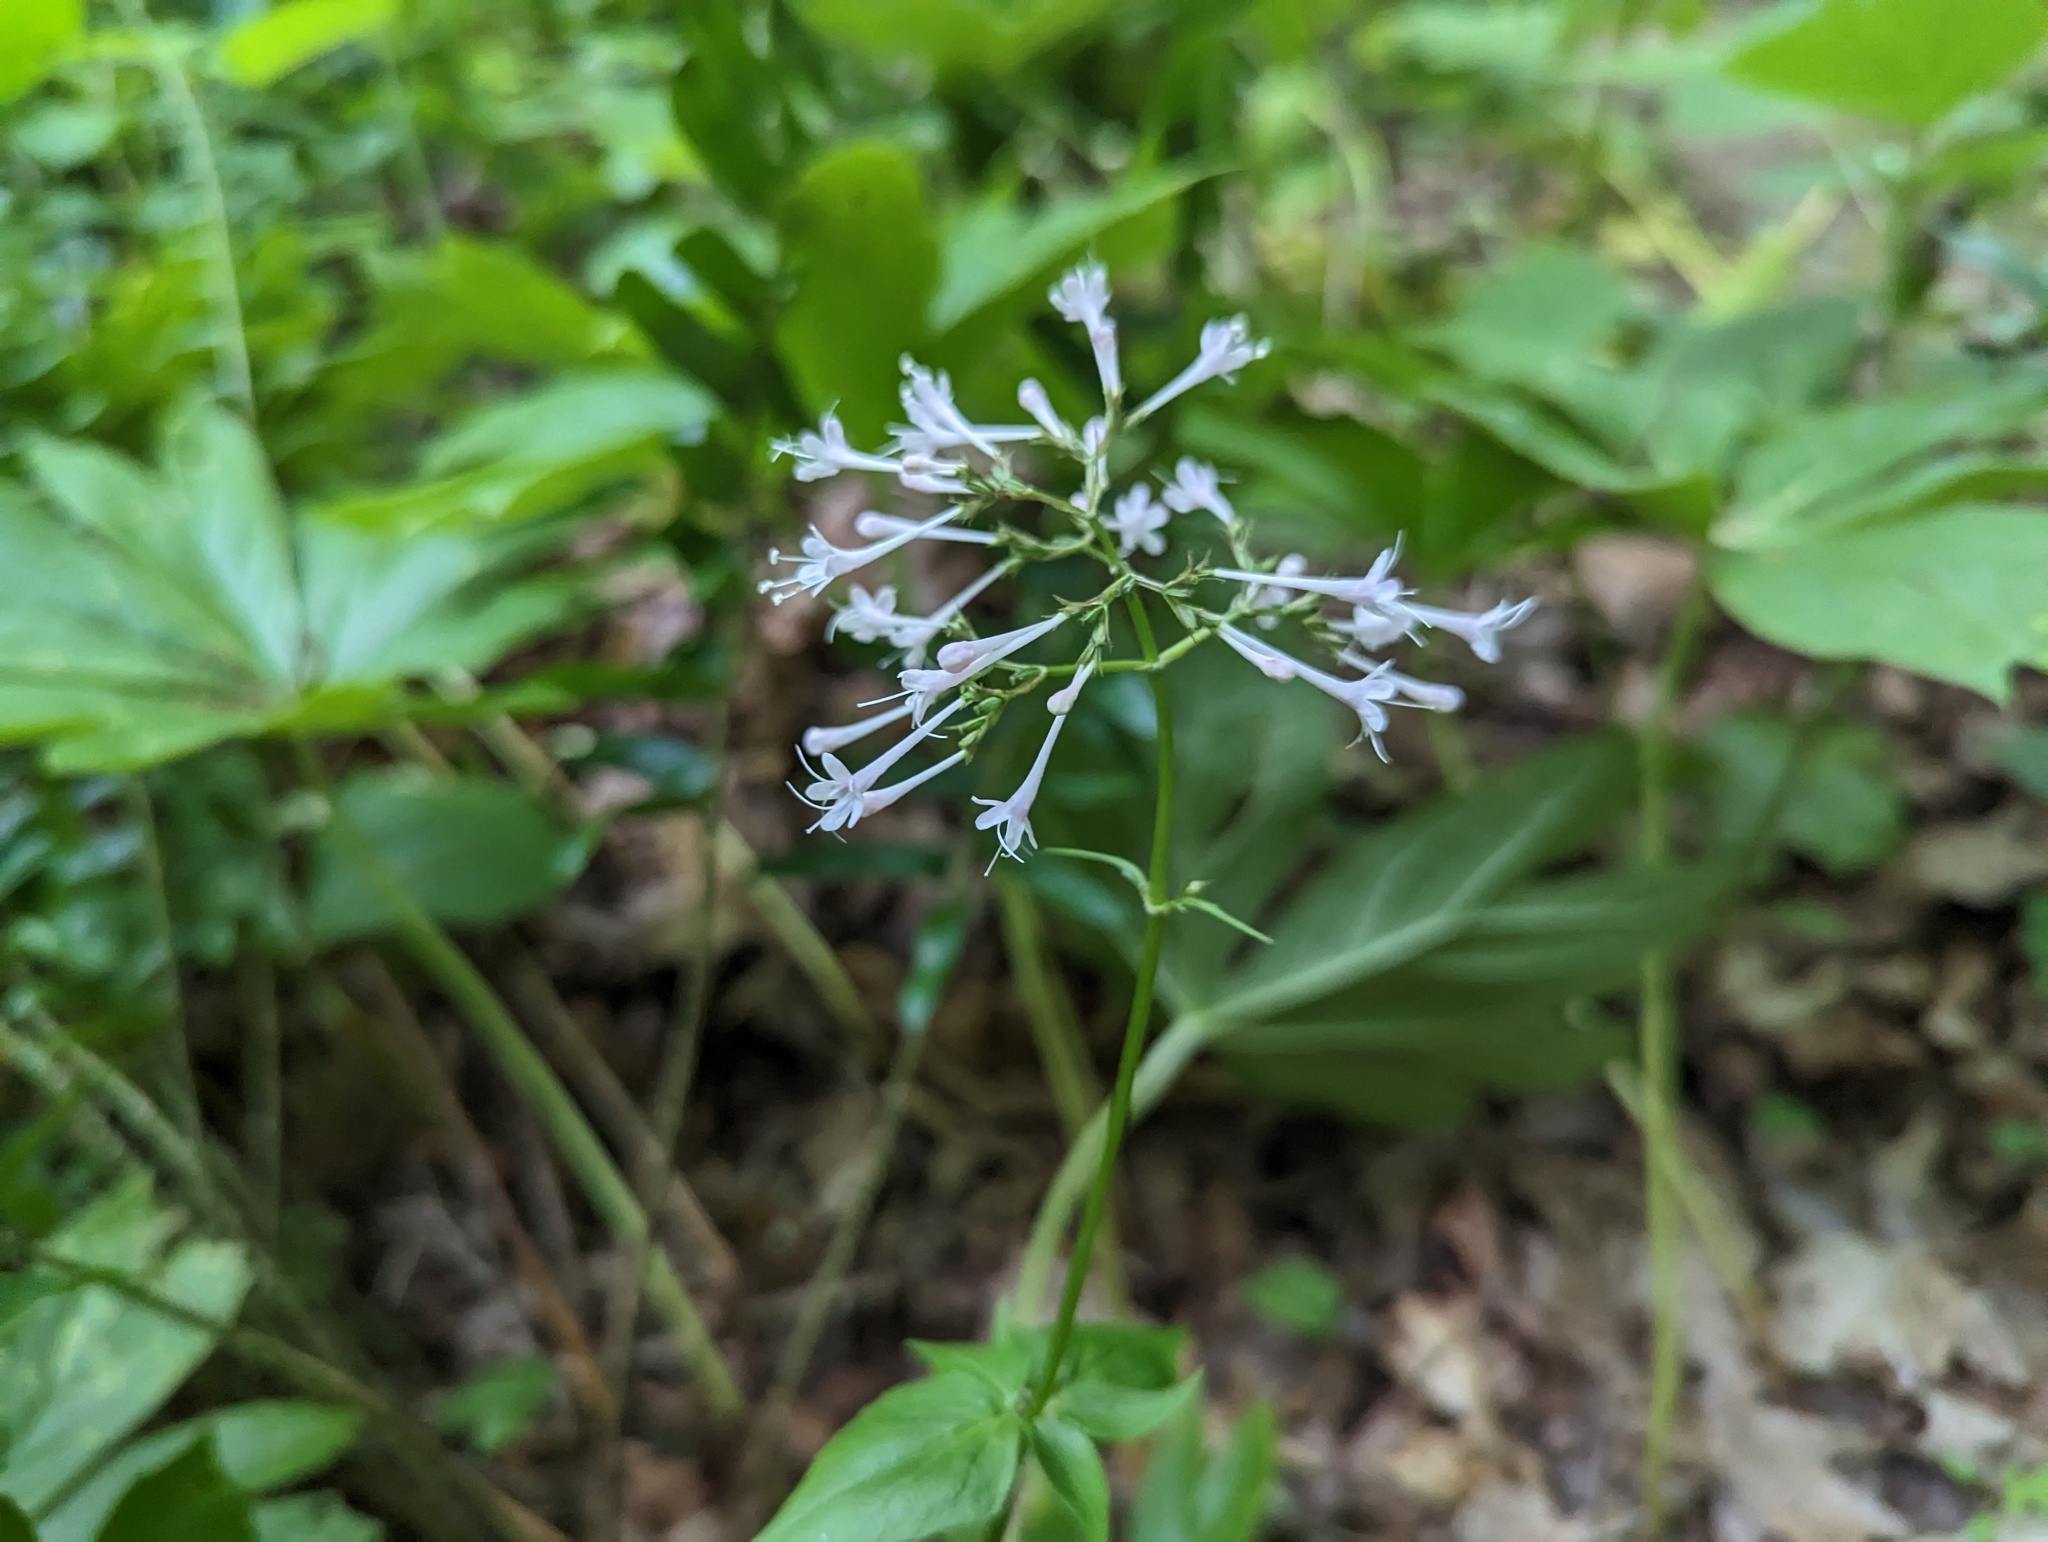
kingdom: Plantae
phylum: Tracheophyta
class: Magnoliopsida
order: Dipsacales
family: Caprifoliaceae
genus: Valeriana
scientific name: Valeriana pauciflora
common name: Long-tube valeriana
